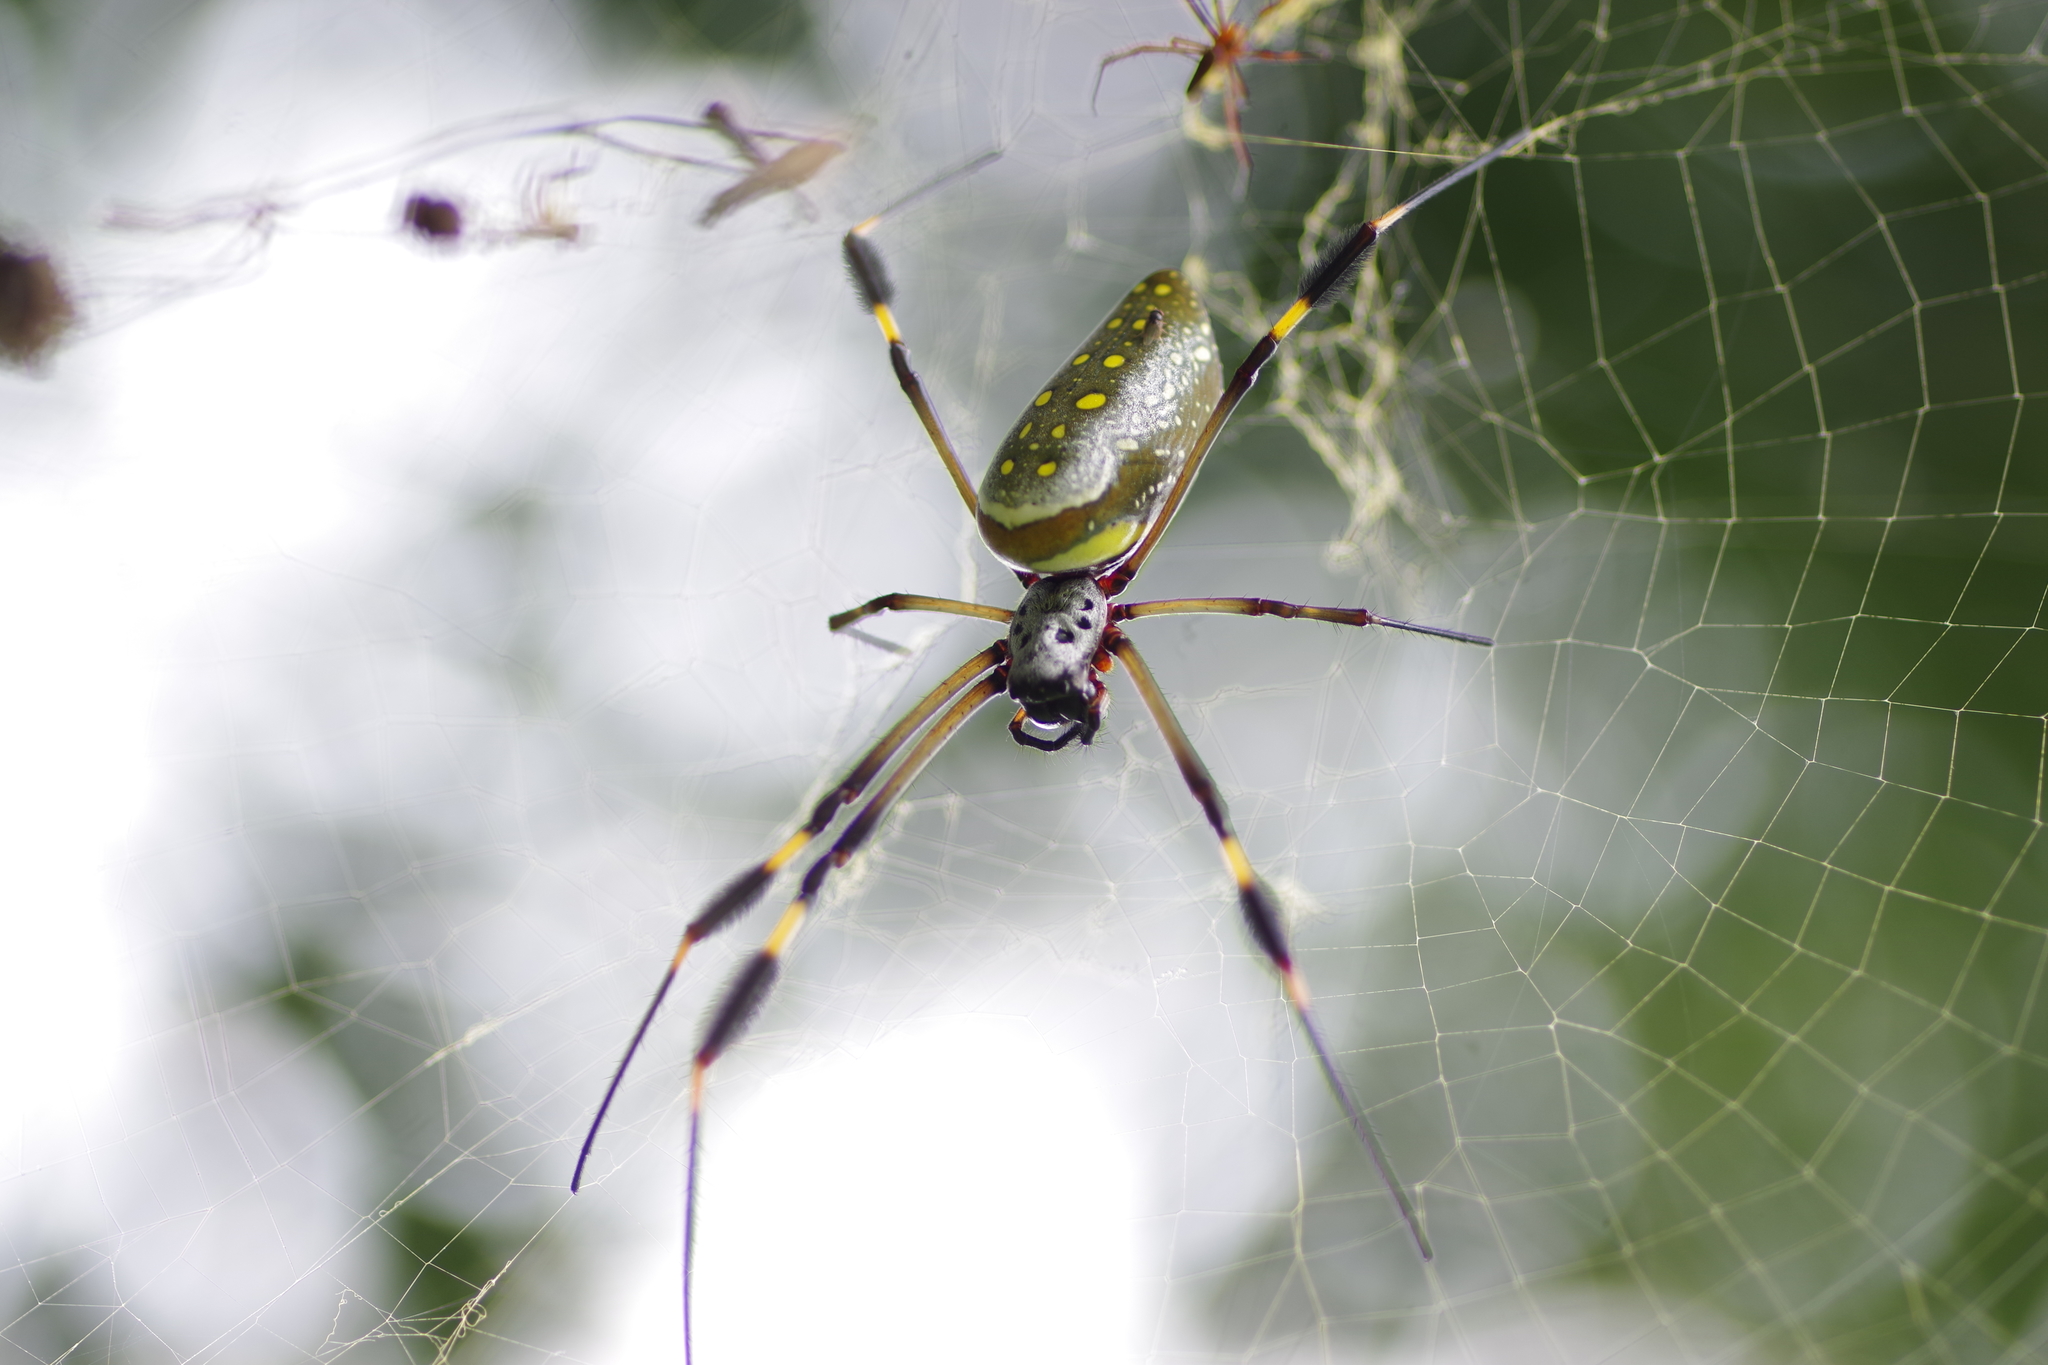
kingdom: Animalia
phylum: Arthropoda
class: Arachnida
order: Araneae
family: Araneidae
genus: Trichonephila
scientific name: Trichonephila clavipes
